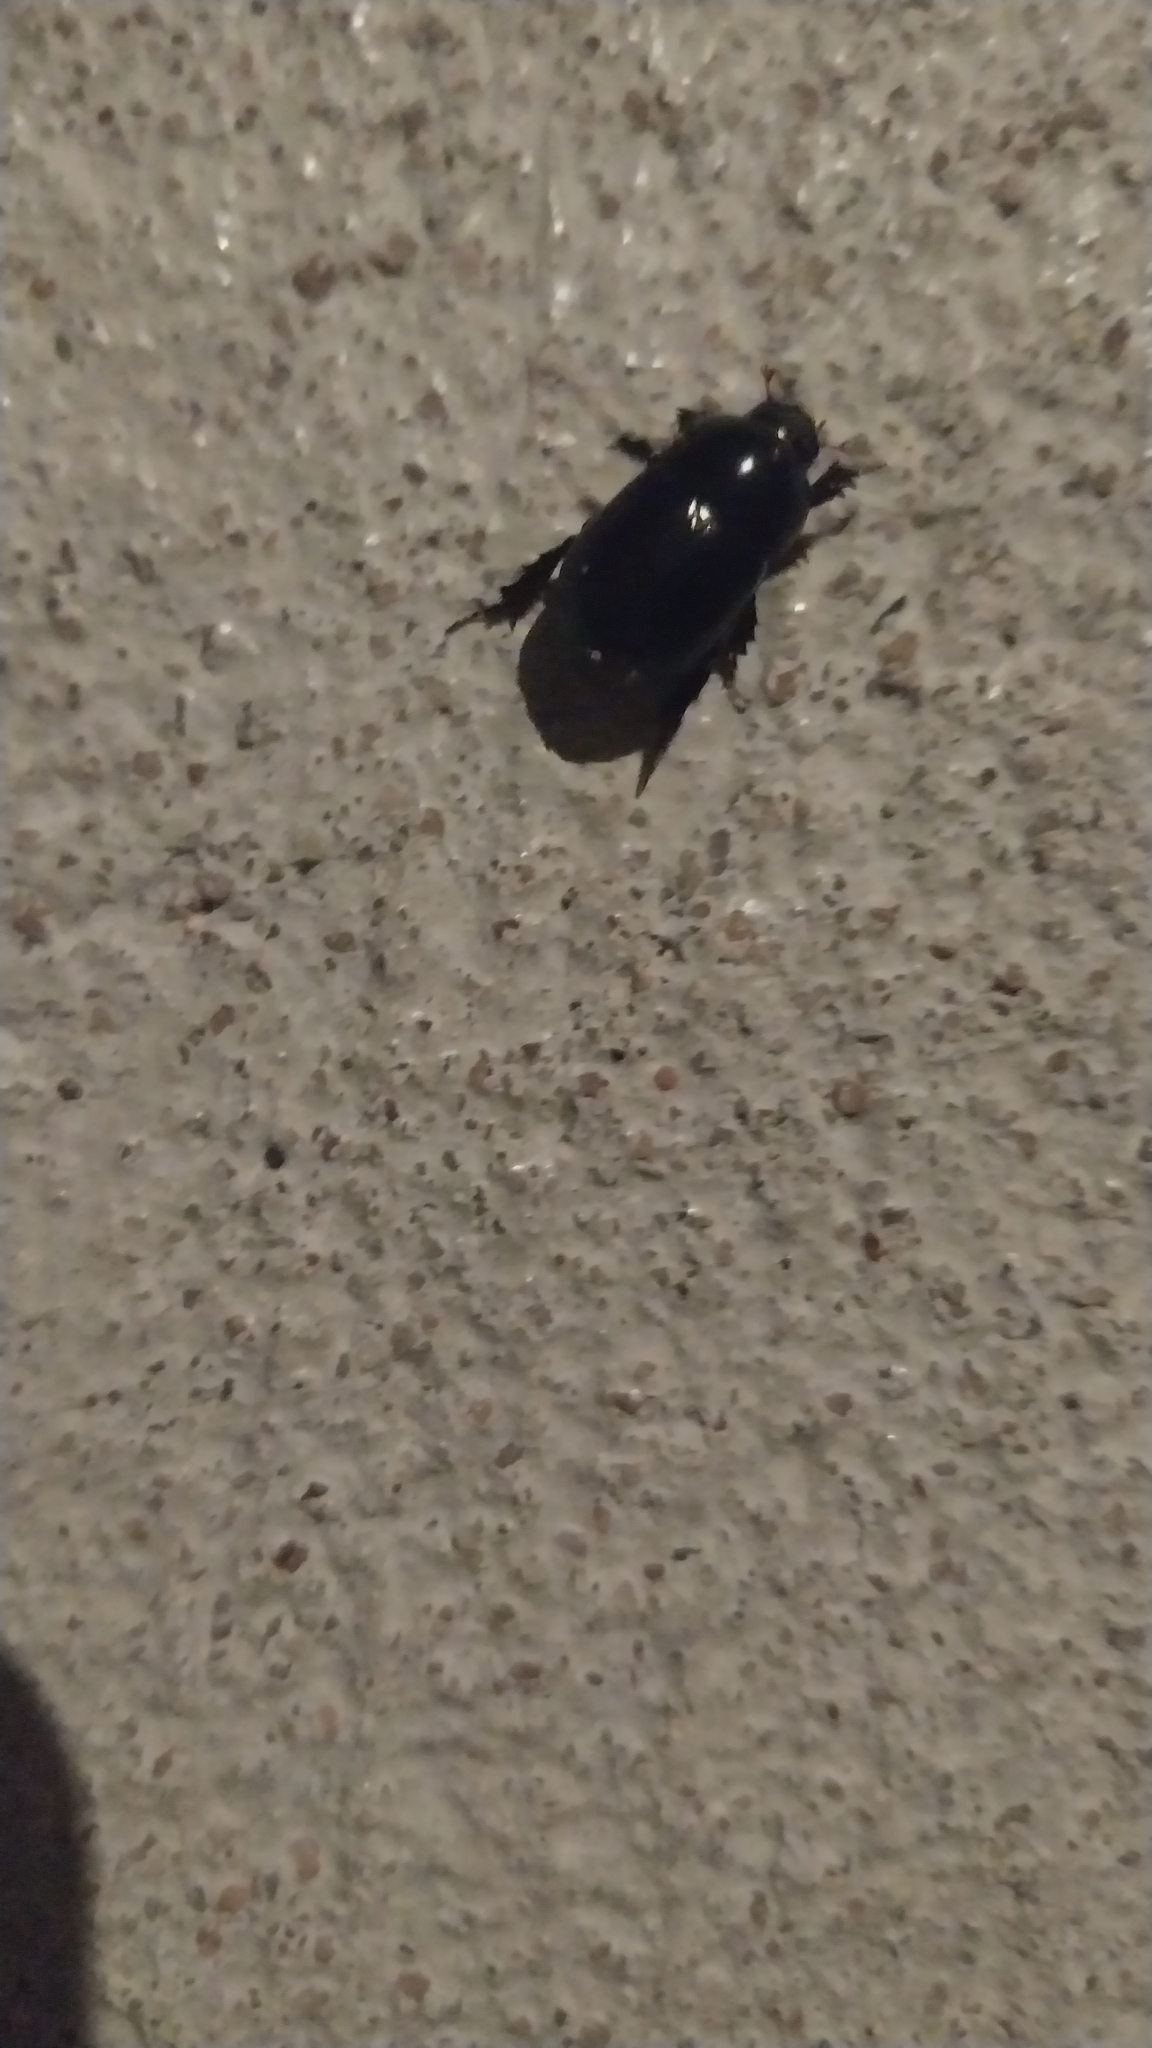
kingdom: Animalia
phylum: Arthropoda
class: Insecta
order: Coleoptera
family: Scarabaeidae
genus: Heteronychus
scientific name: Heteronychus arator
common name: African black beetle
